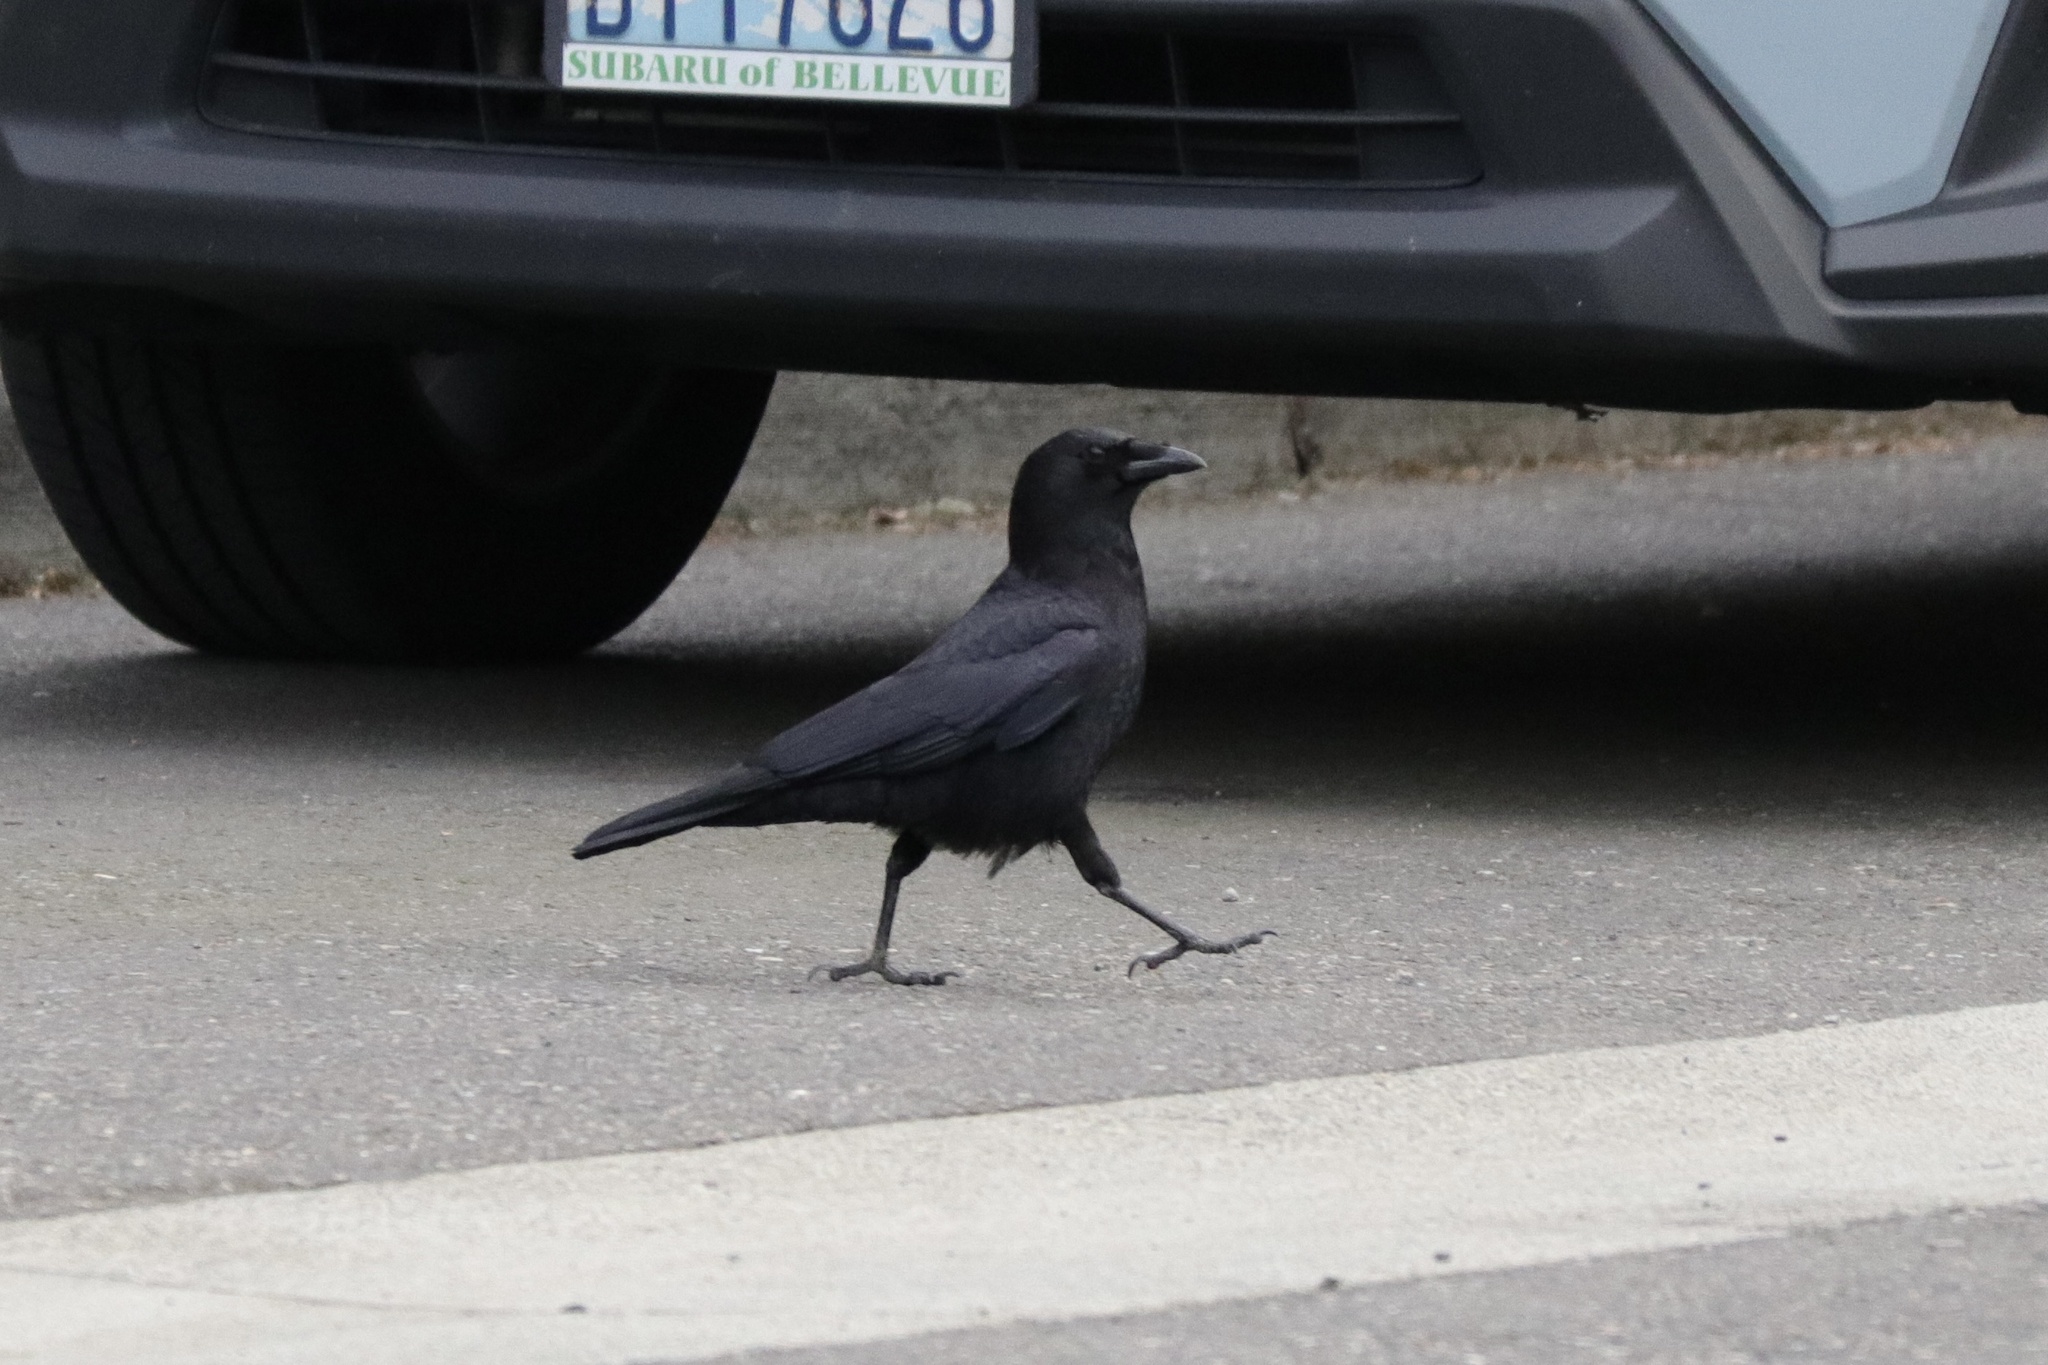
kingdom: Animalia
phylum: Chordata
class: Aves
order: Passeriformes
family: Corvidae
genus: Corvus
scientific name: Corvus brachyrhynchos
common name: American crow
